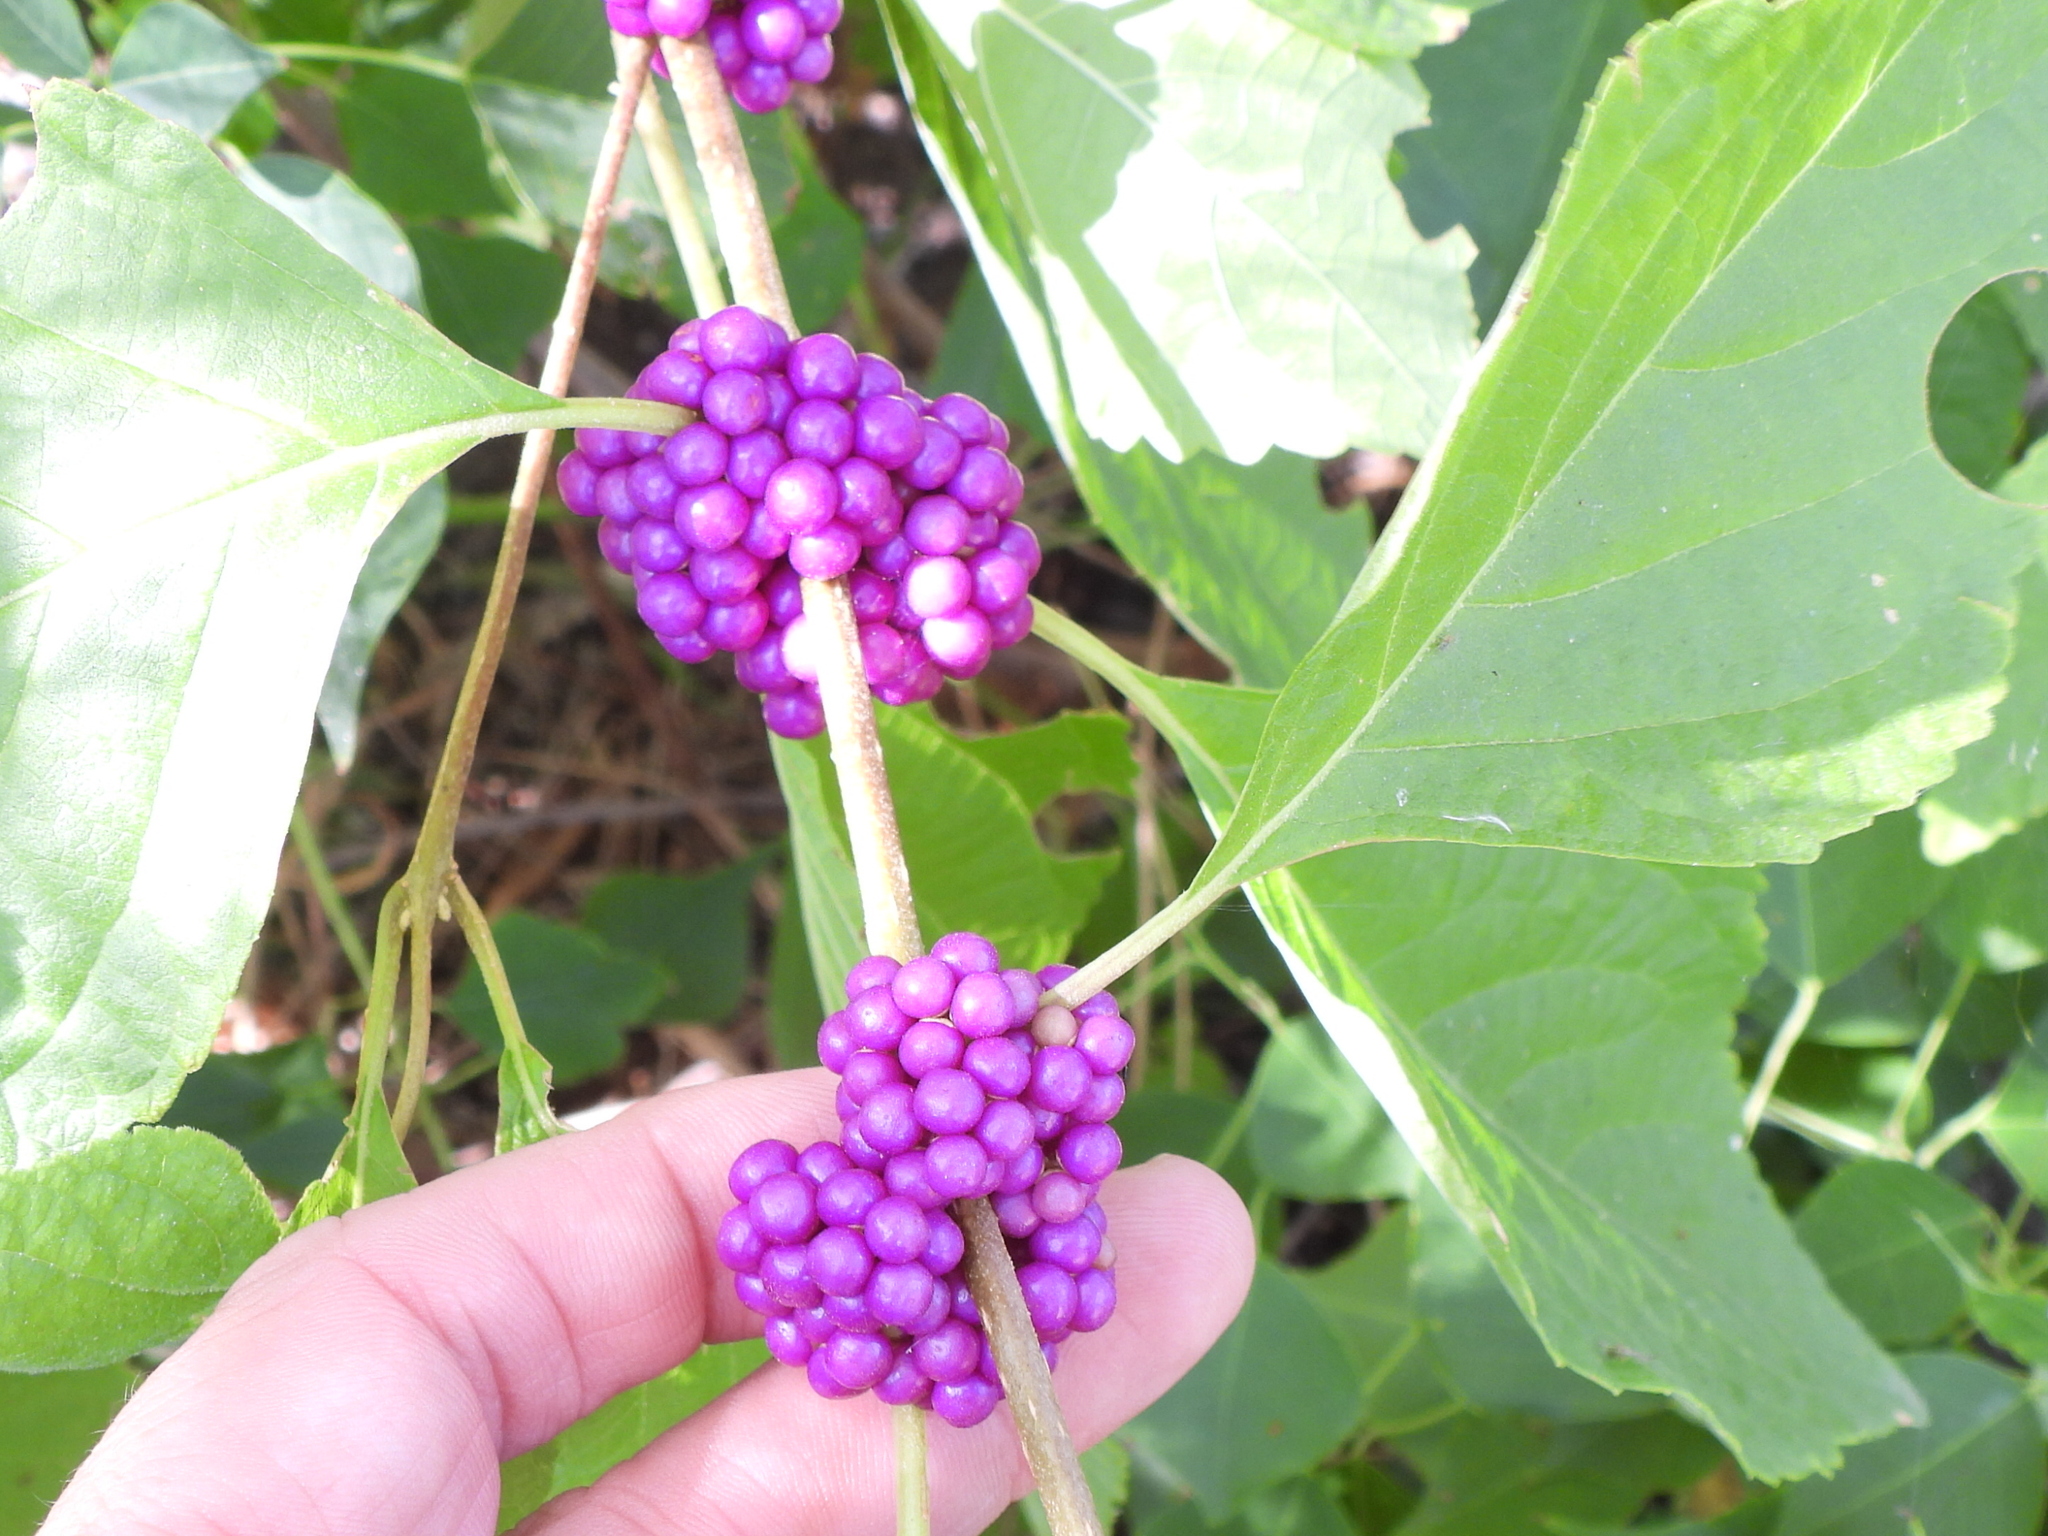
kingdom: Plantae
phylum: Tracheophyta
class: Magnoliopsida
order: Lamiales
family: Lamiaceae
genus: Callicarpa
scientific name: Callicarpa americana
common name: American beautyberry
